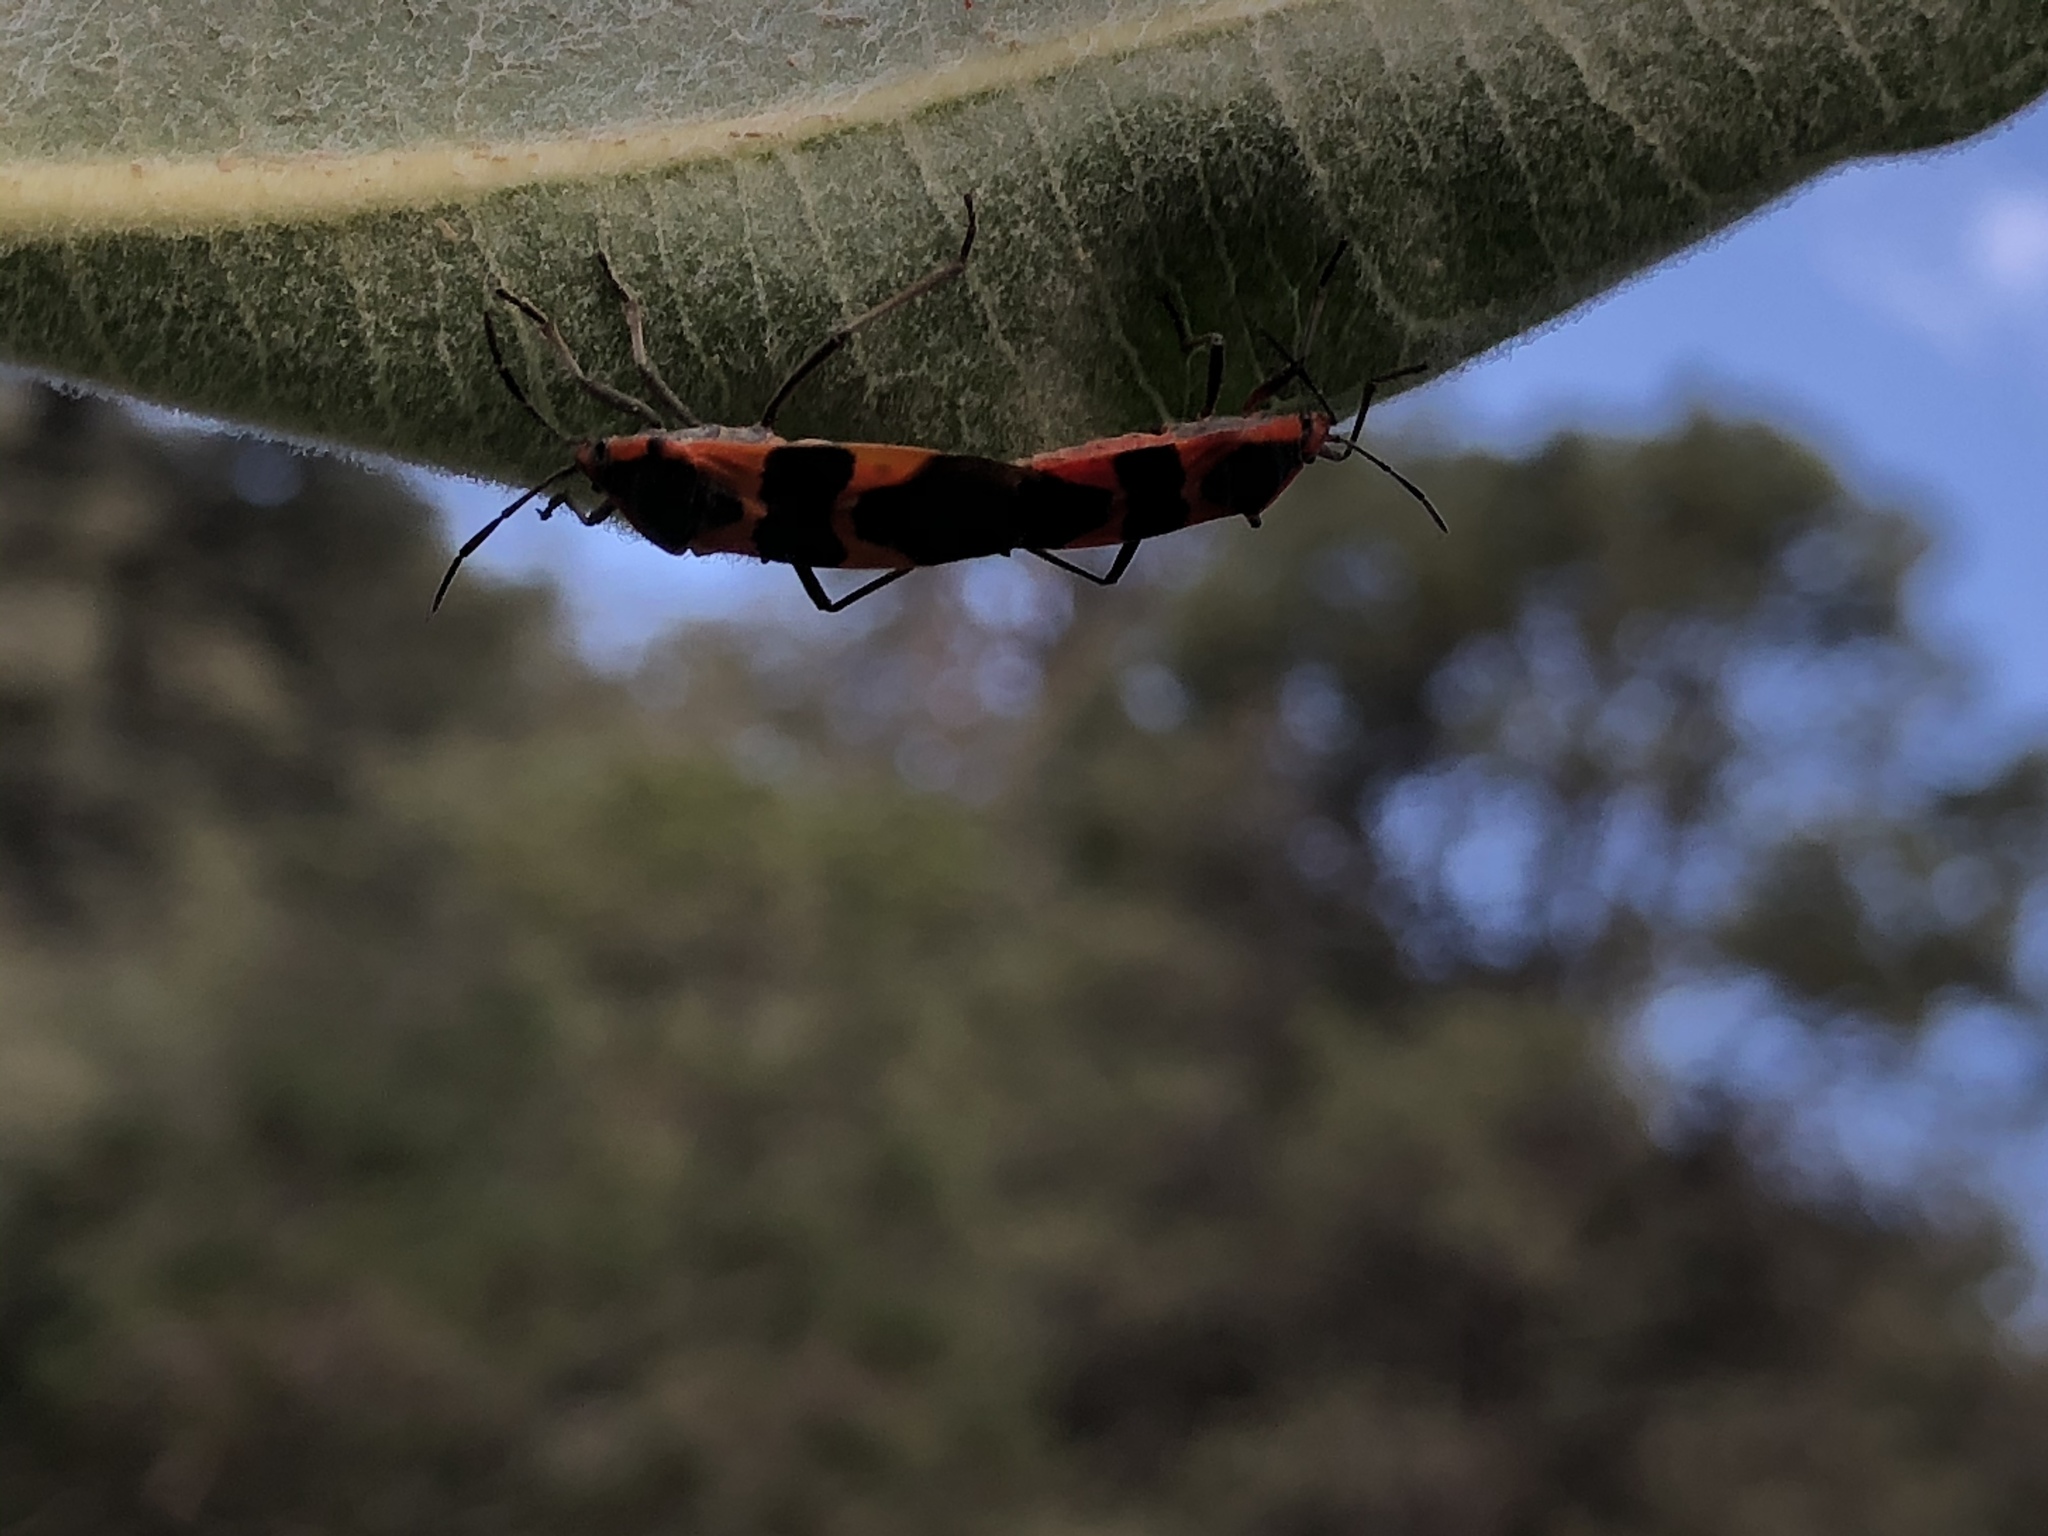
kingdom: Animalia
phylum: Arthropoda
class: Insecta
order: Hemiptera
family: Lygaeidae
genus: Oncopeltus
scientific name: Oncopeltus fasciatus
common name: Large milkweed bug
